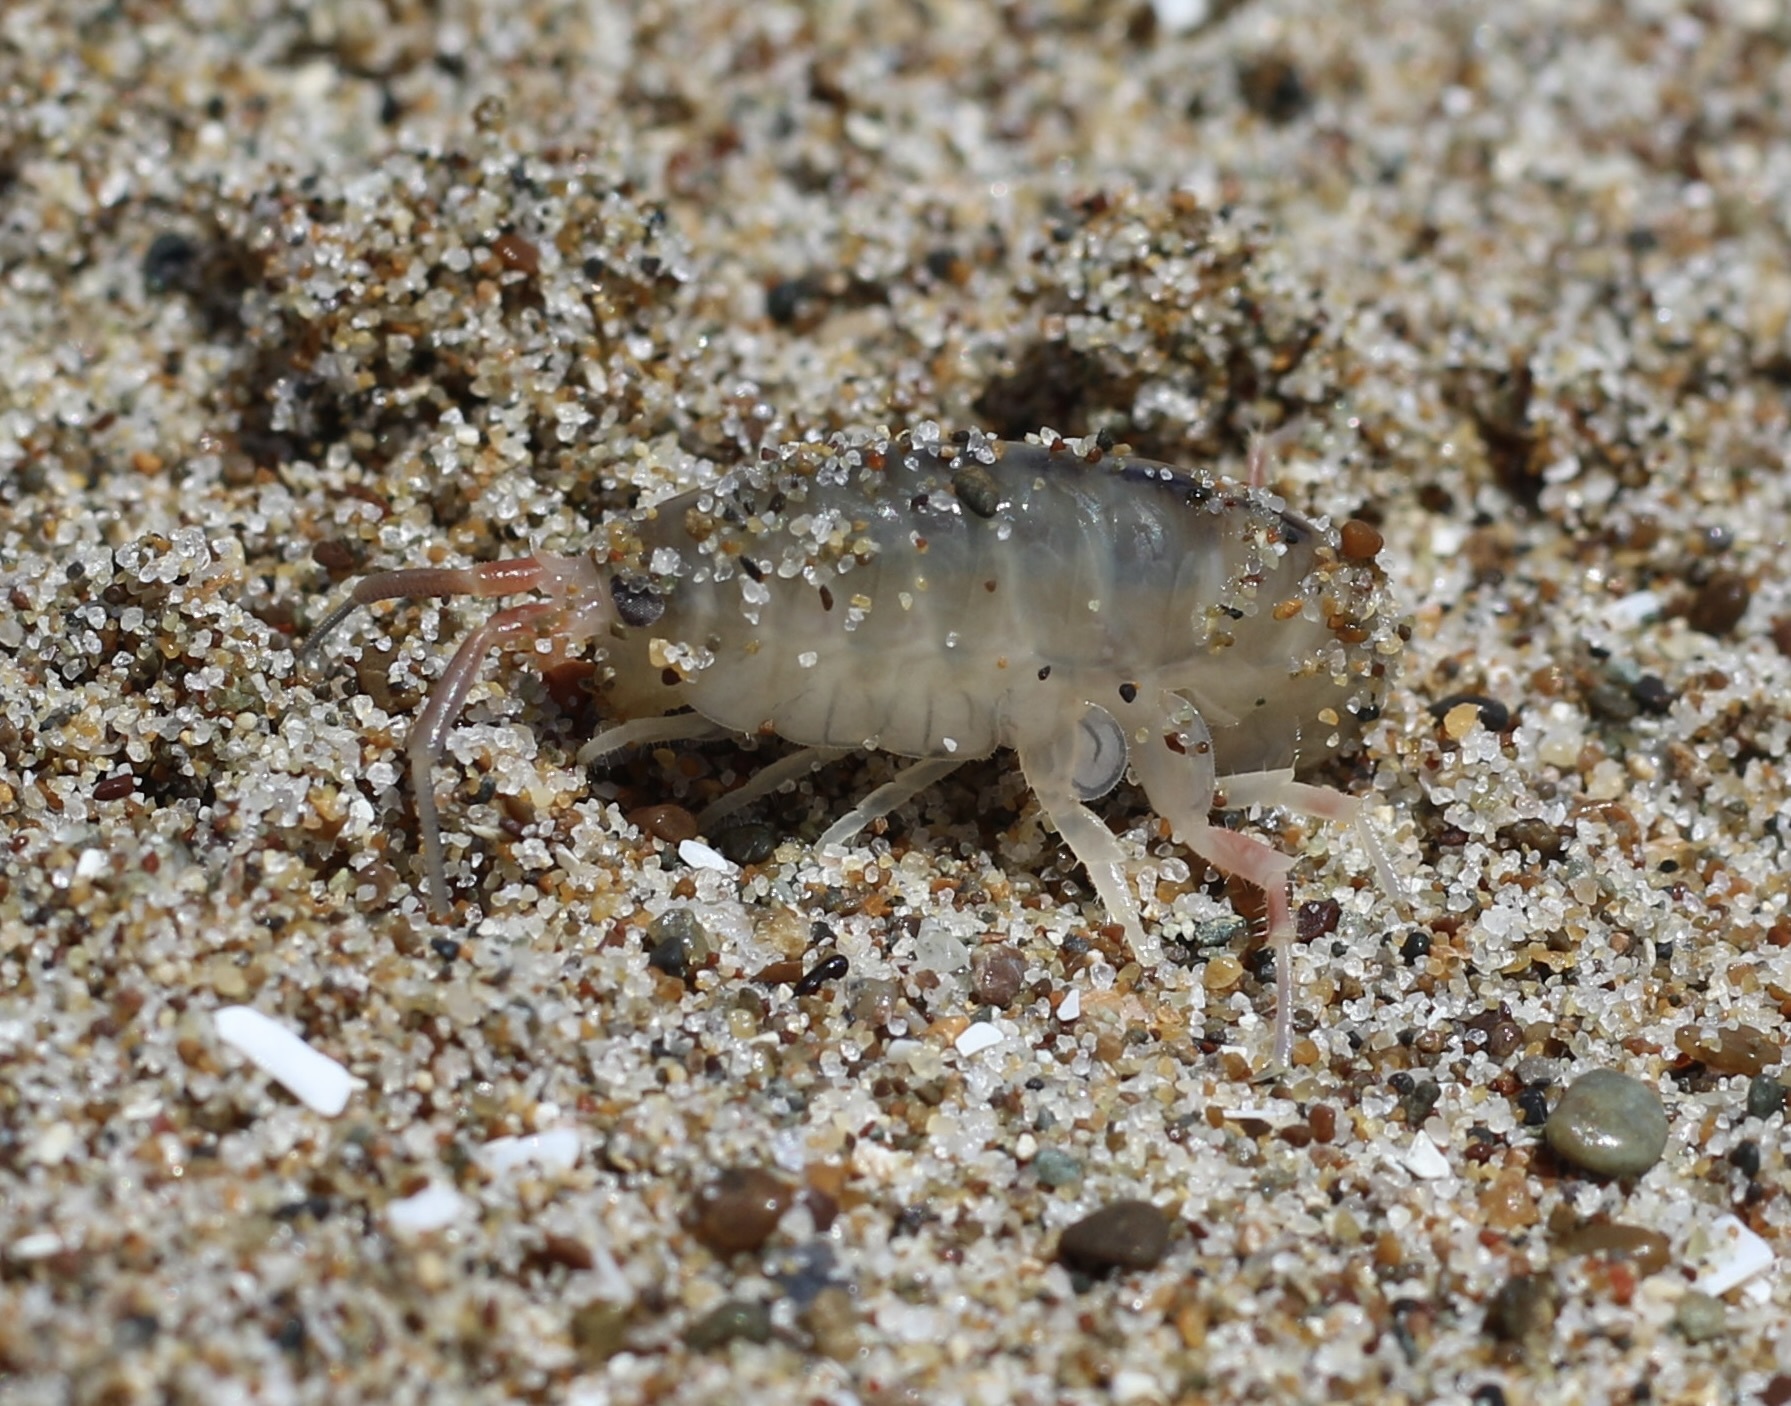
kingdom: Animalia
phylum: Arthropoda
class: Malacostraca
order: Amphipoda
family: Talitridae
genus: Megalorchestia
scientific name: Megalorchestia californiana
